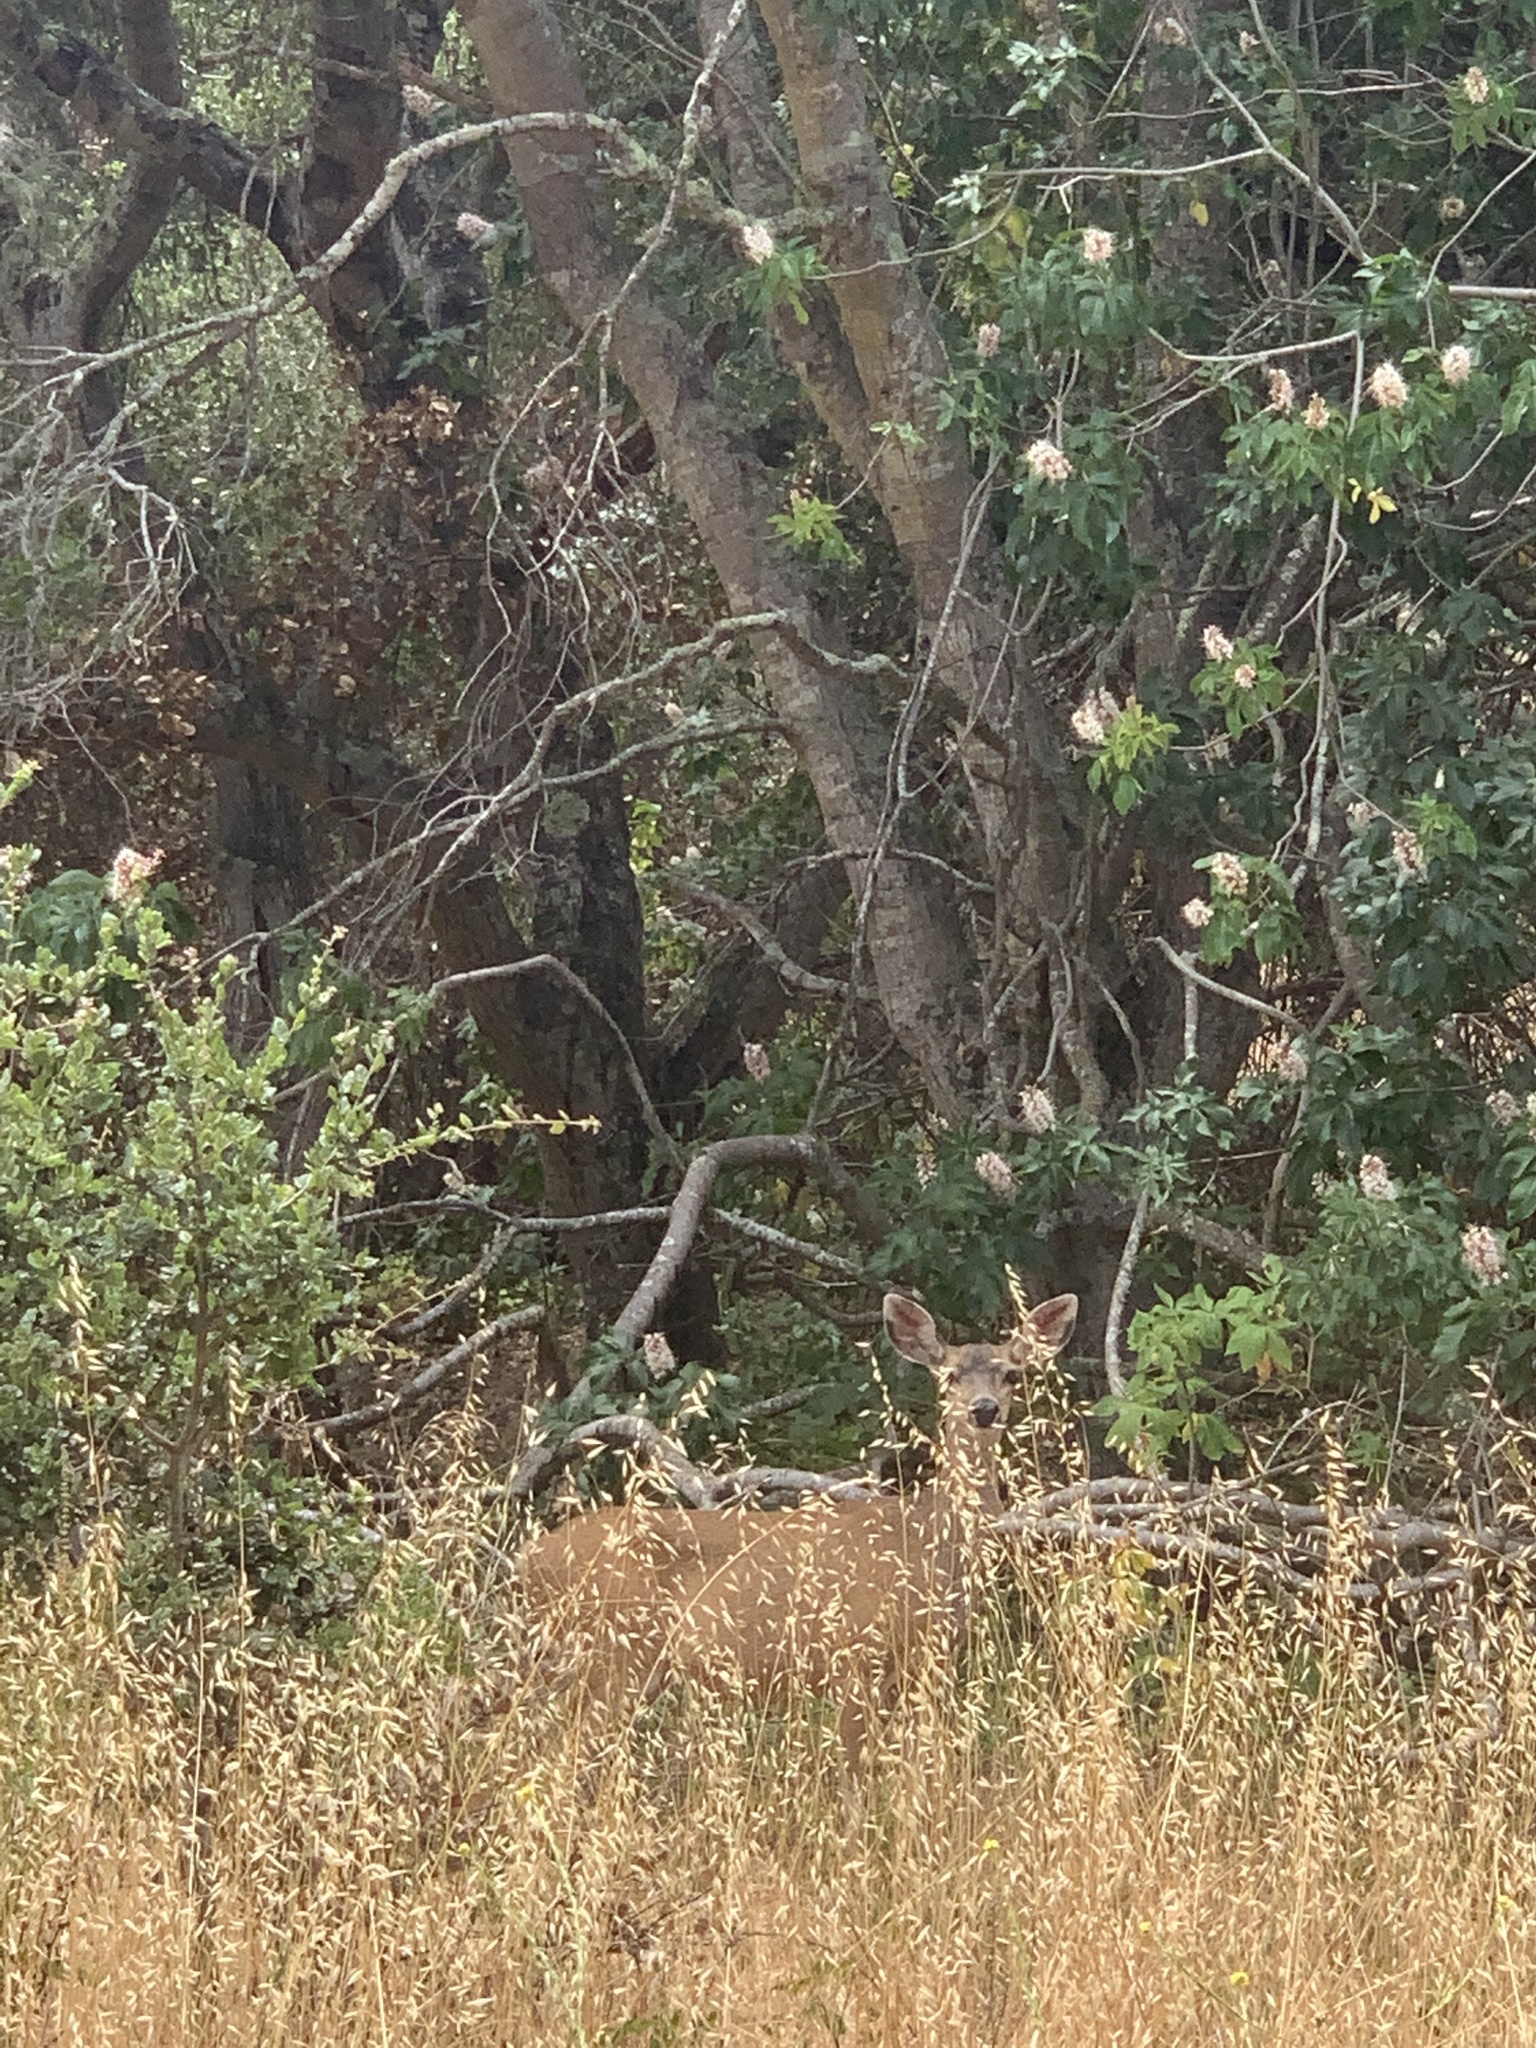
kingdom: Animalia
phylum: Chordata
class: Mammalia
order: Artiodactyla
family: Cervidae
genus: Odocoileus
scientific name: Odocoileus hemionus
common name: Mule deer
